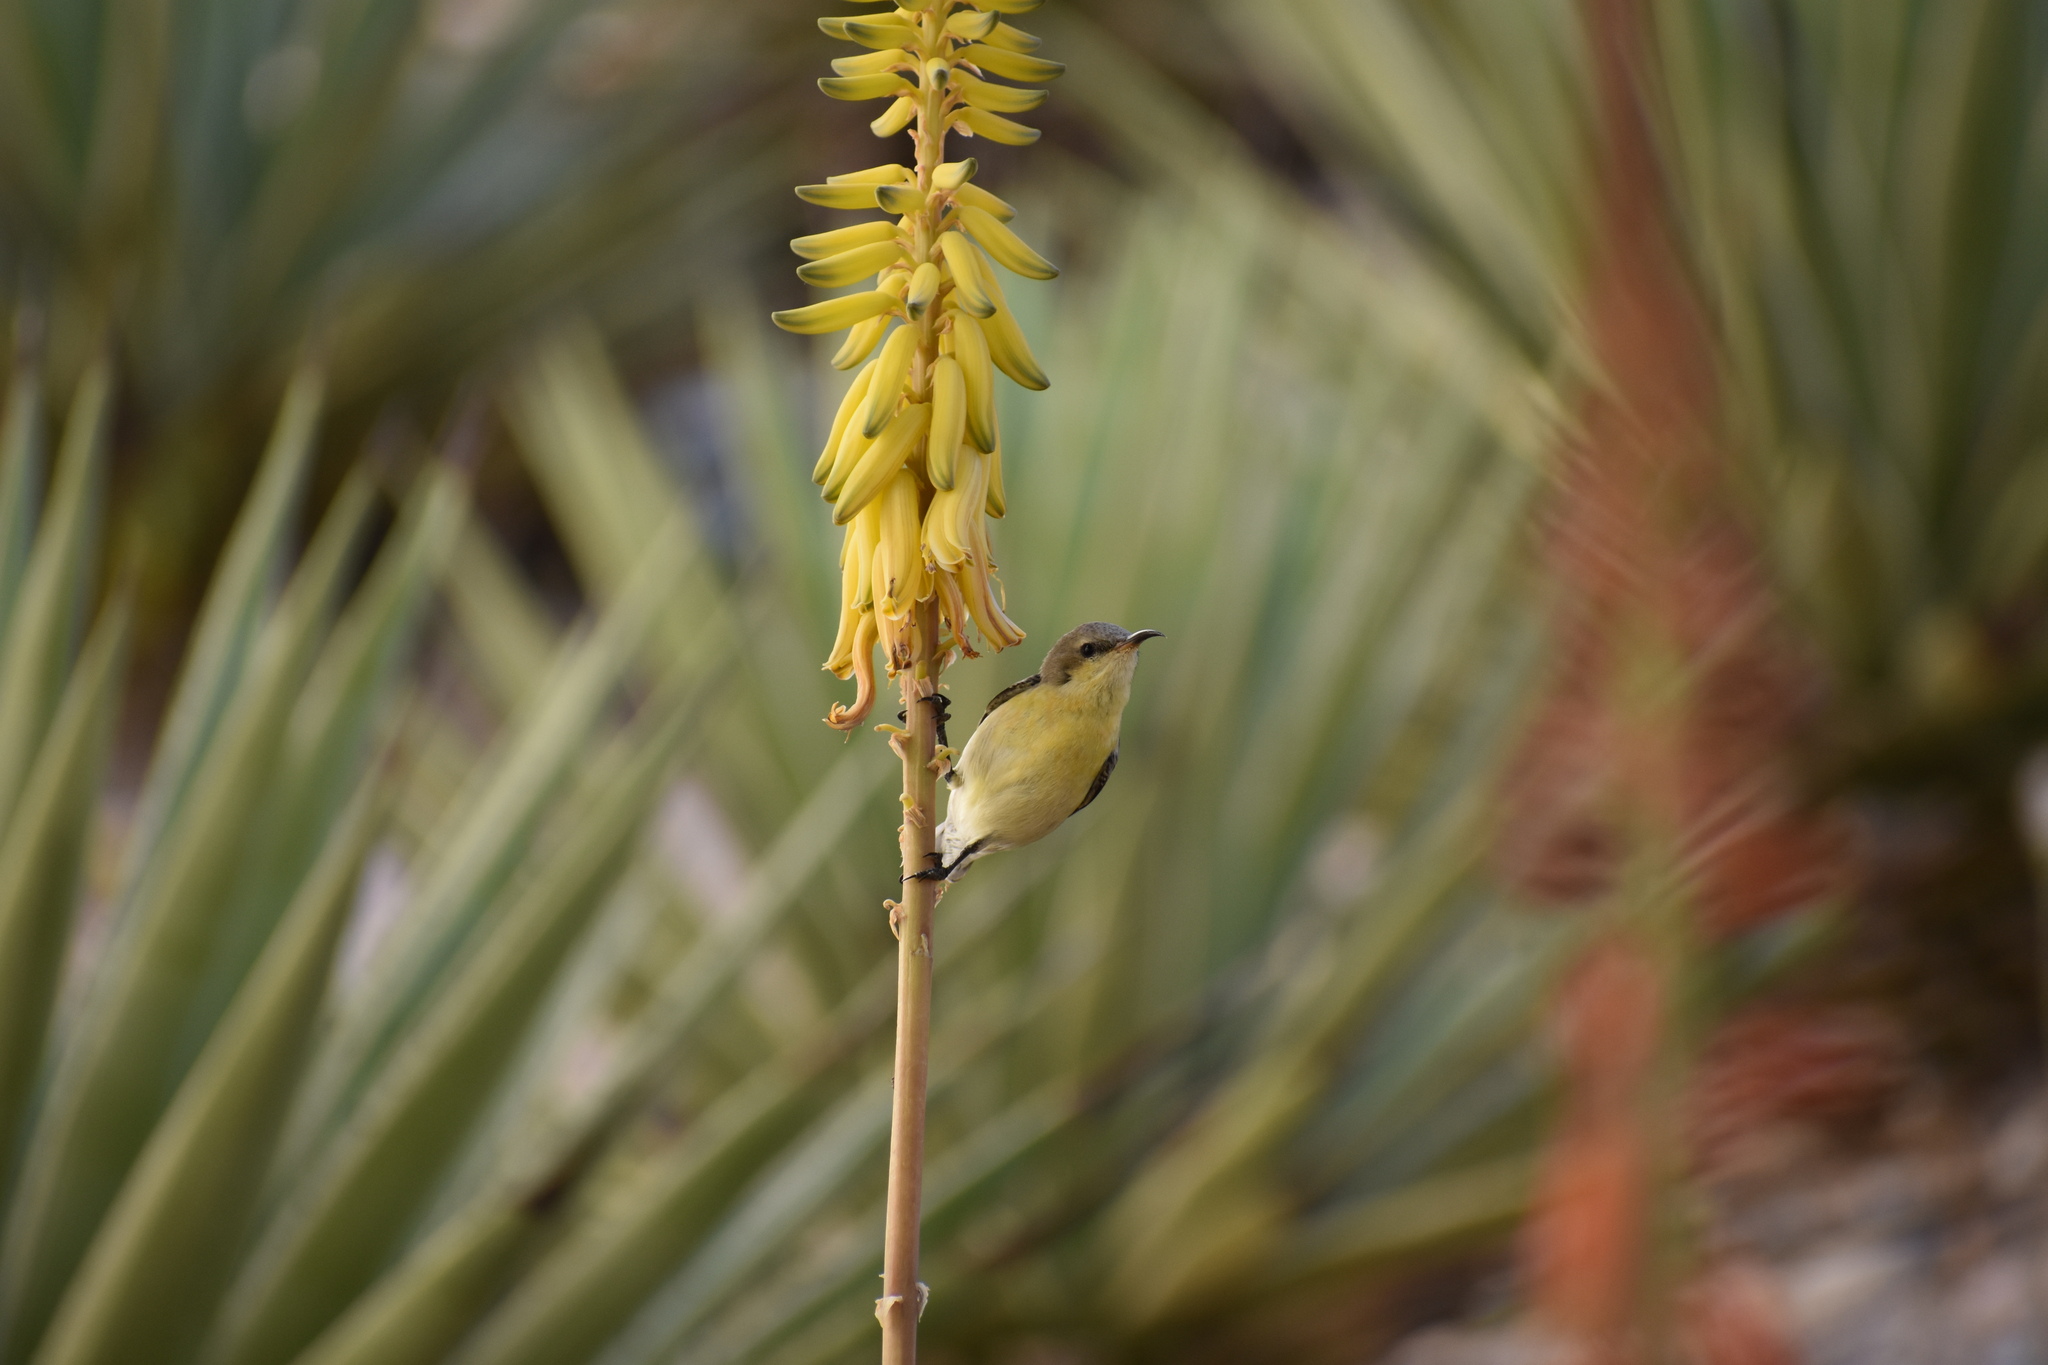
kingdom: Animalia
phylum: Chordata
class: Aves
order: Passeriformes
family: Nectariniidae
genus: Cinnyris
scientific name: Cinnyris asiaticus
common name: Purple sunbird
